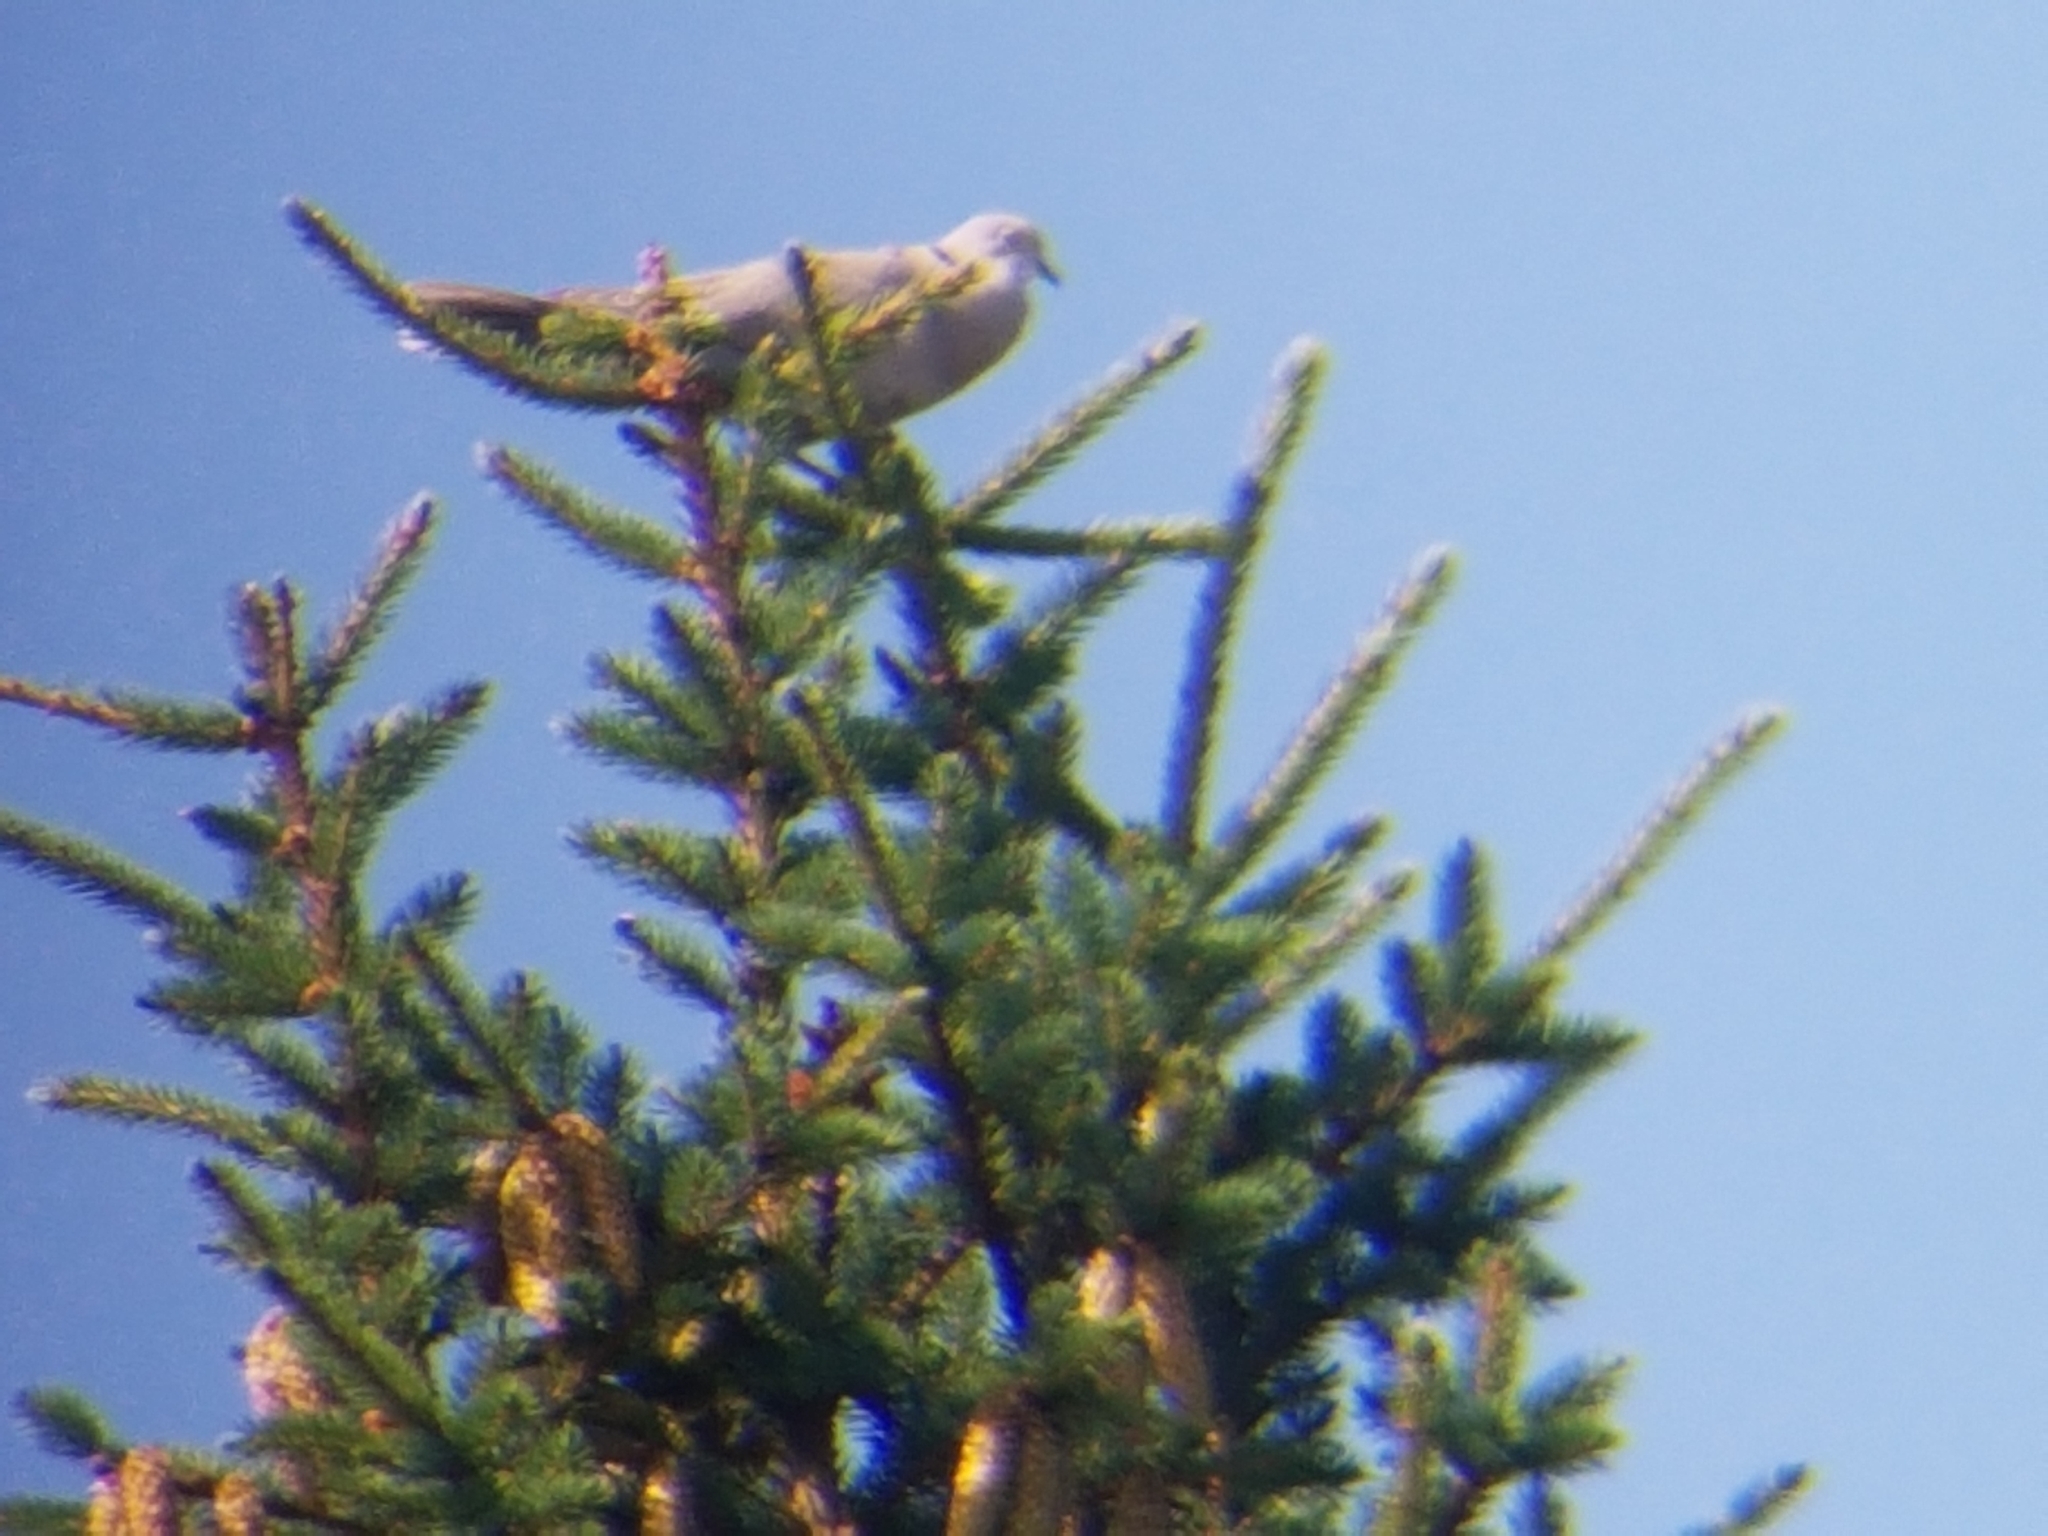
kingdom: Animalia
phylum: Chordata
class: Aves
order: Columbiformes
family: Columbidae
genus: Streptopelia
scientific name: Streptopelia decaocto
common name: Eurasian collared dove
